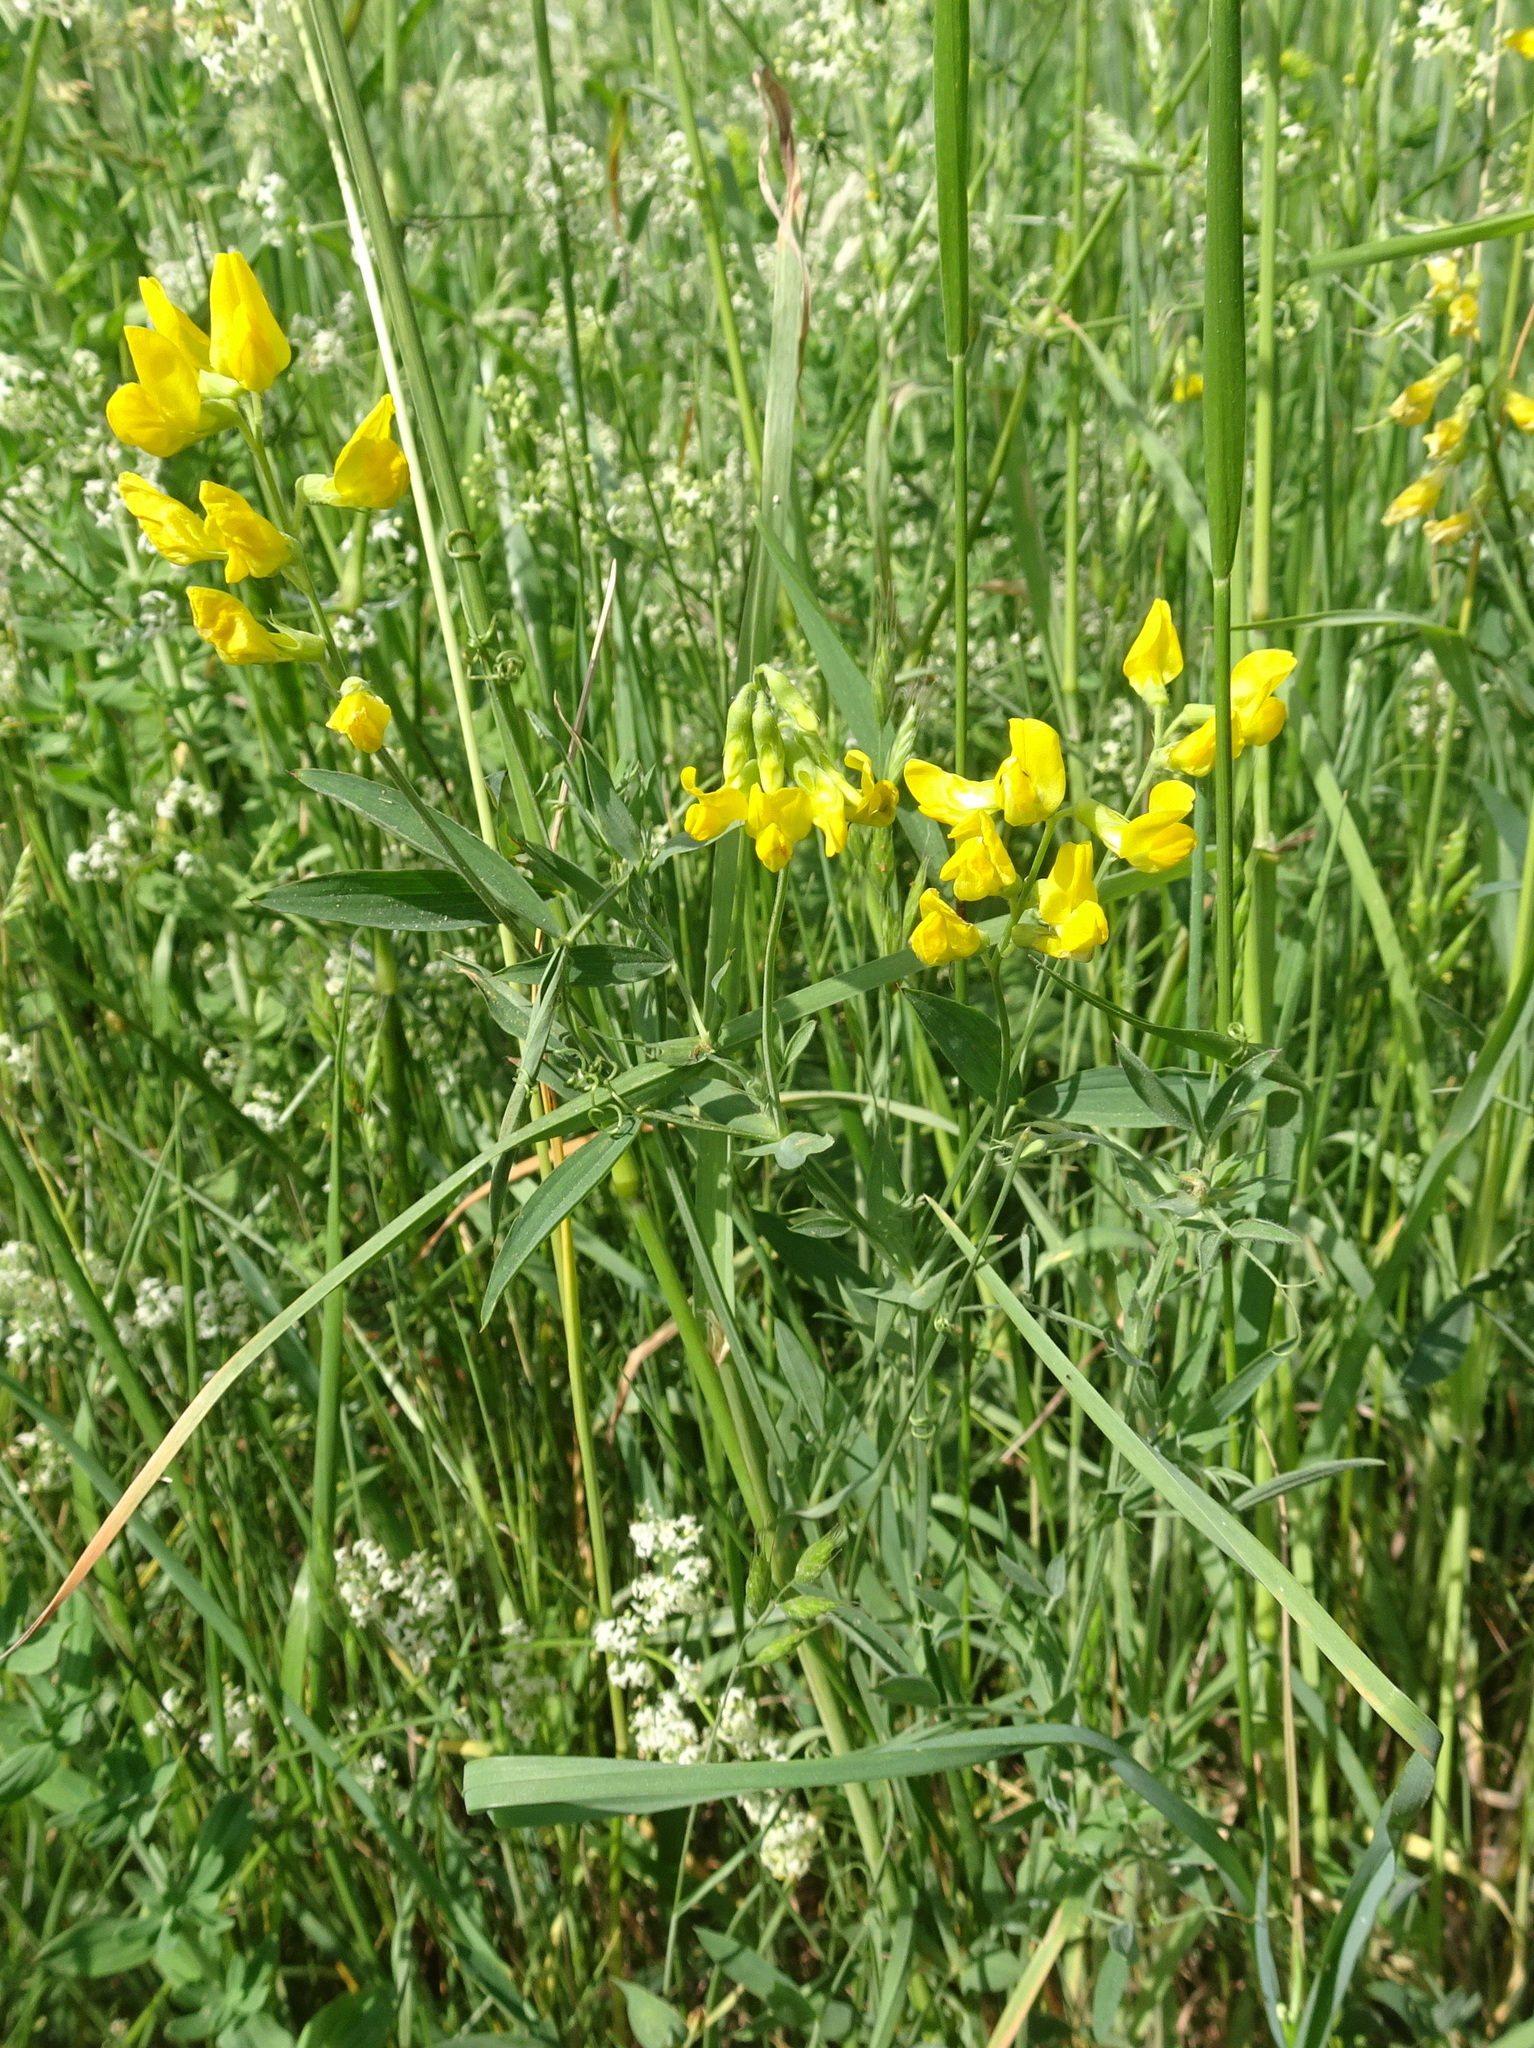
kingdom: Plantae
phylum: Tracheophyta
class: Magnoliopsida
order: Fabales
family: Fabaceae
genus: Lathyrus
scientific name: Lathyrus pratensis
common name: Meadow vetchling
